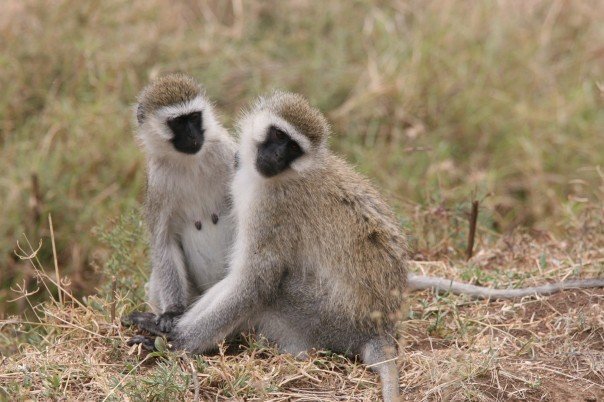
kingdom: Animalia
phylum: Chordata
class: Mammalia
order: Primates
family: Cercopithecidae
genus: Chlorocebus
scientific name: Chlorocebus pygerythrus
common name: Vervet monkey
